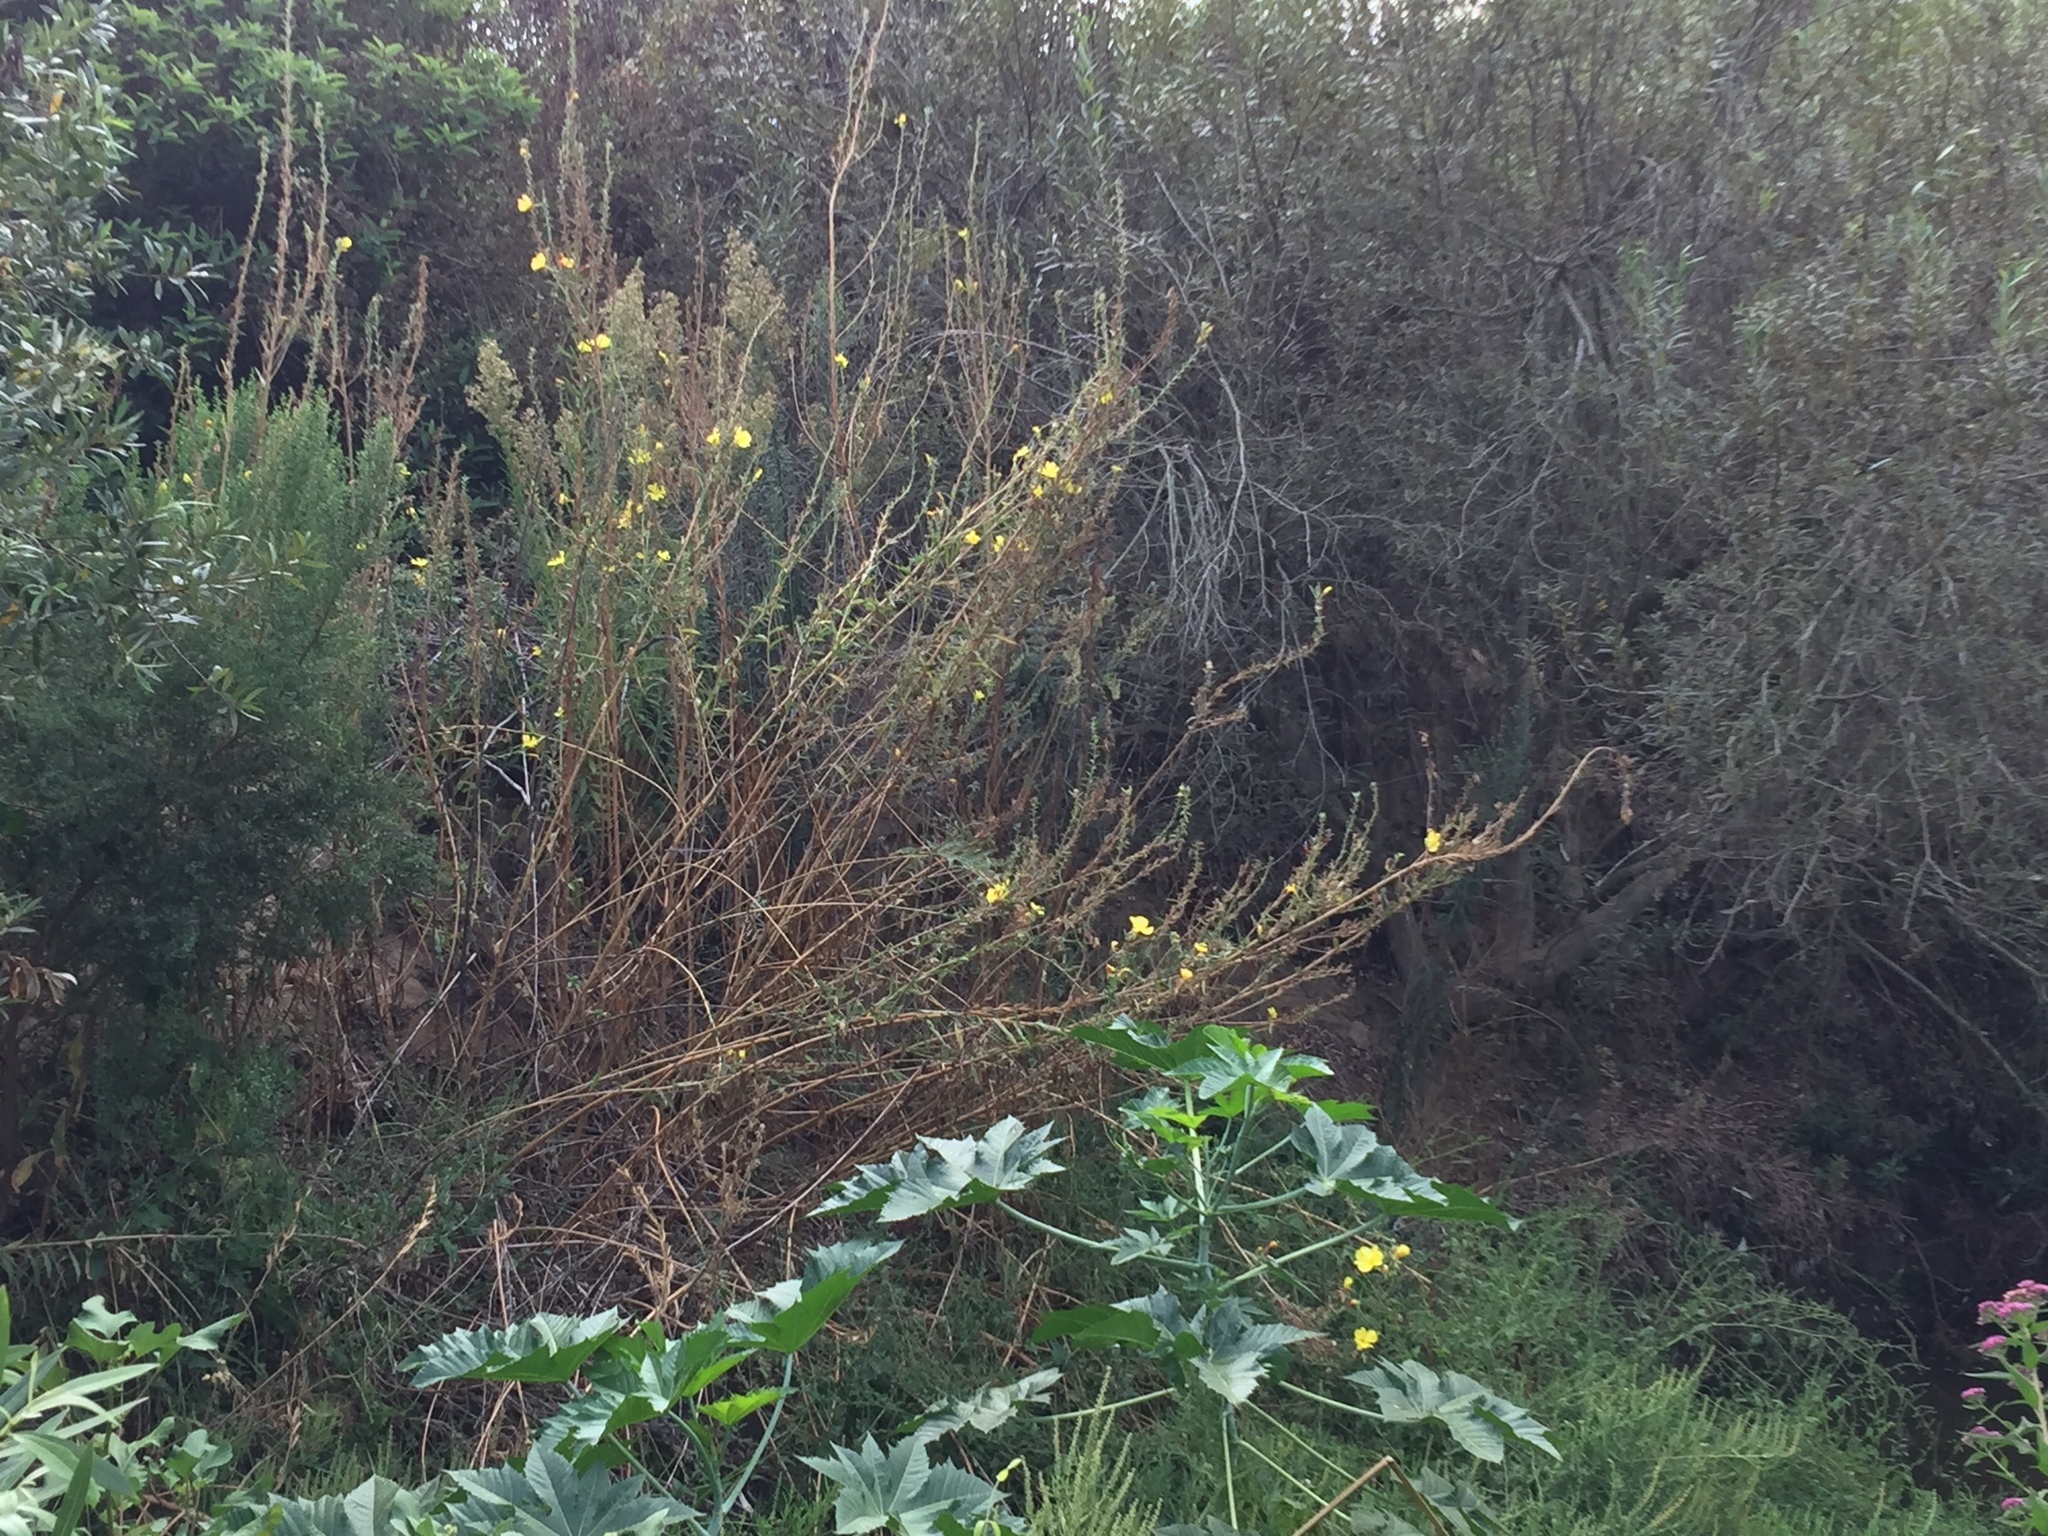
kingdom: Plantae
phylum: Tracheophyta
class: Magnoliopsida
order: Myrtales
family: Onagraceae
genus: Oenothera
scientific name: Oenothera elata
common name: Hooker's evening-primrose
